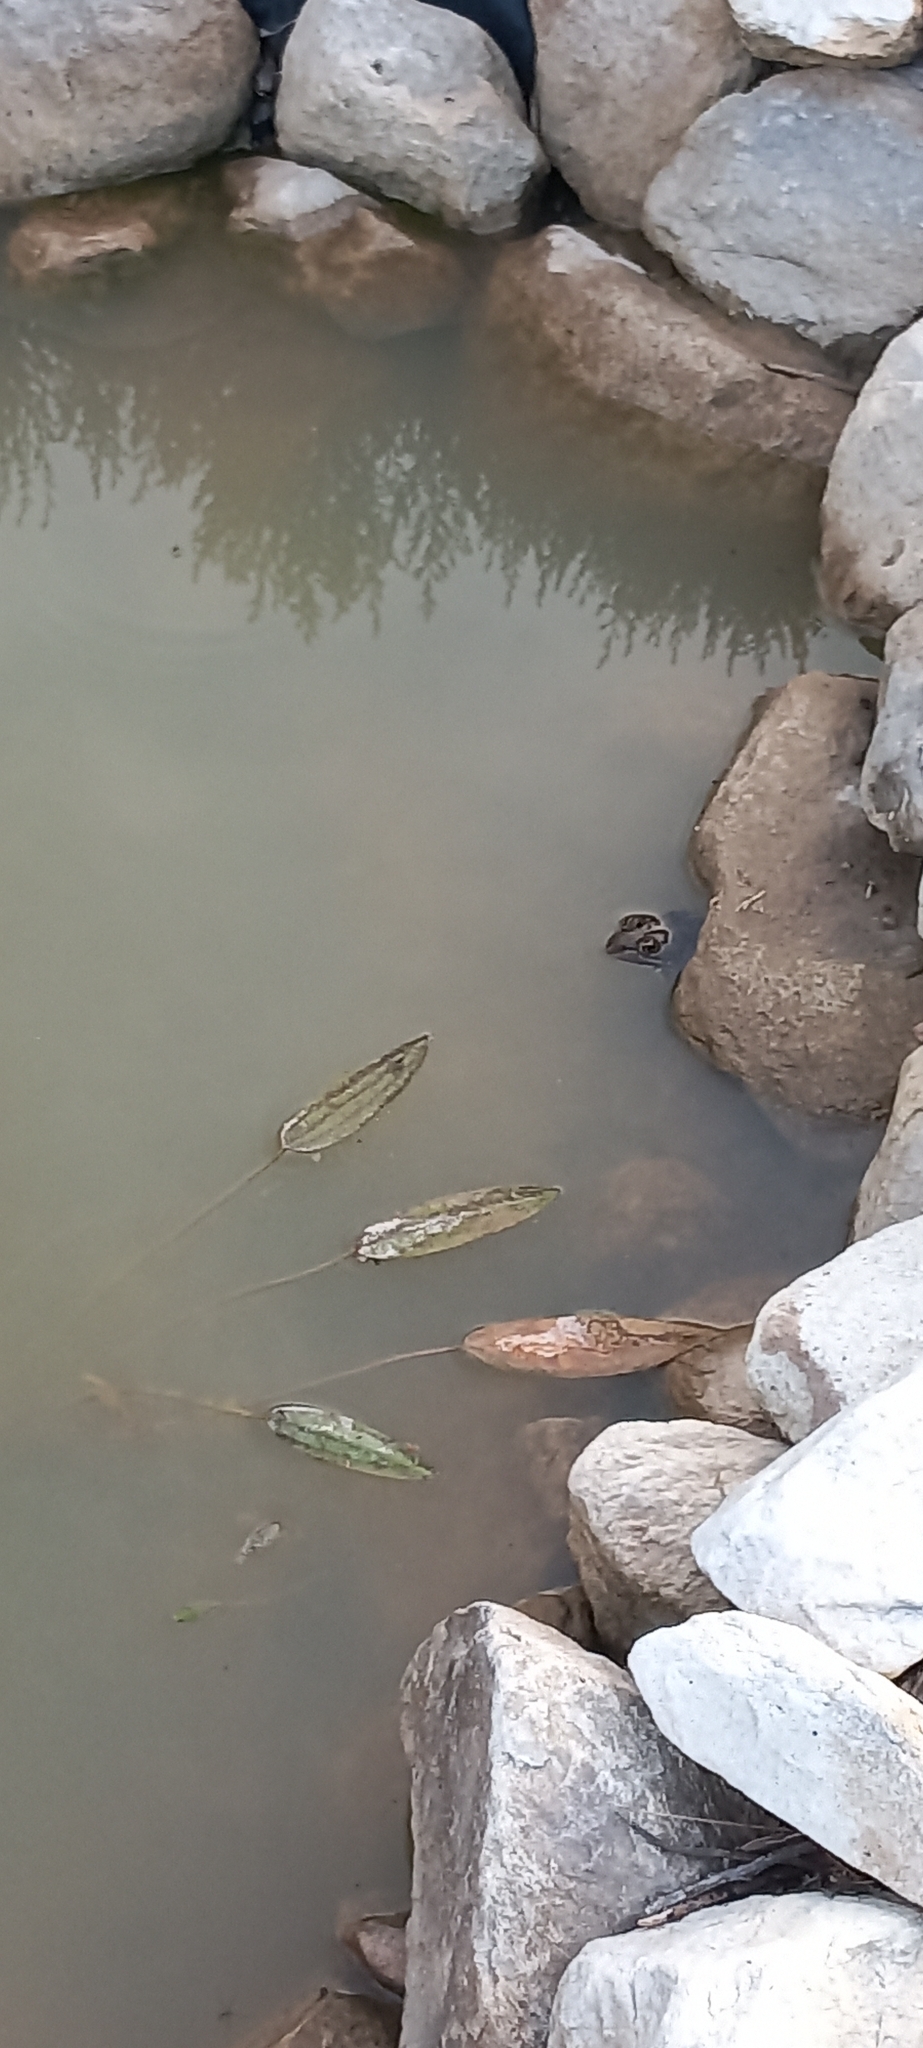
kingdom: Animalia
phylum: Chordata
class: Amphibia
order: Anura
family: Pyxicephalidae
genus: Amietia
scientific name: Amietia fuscigula
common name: Cape rana
